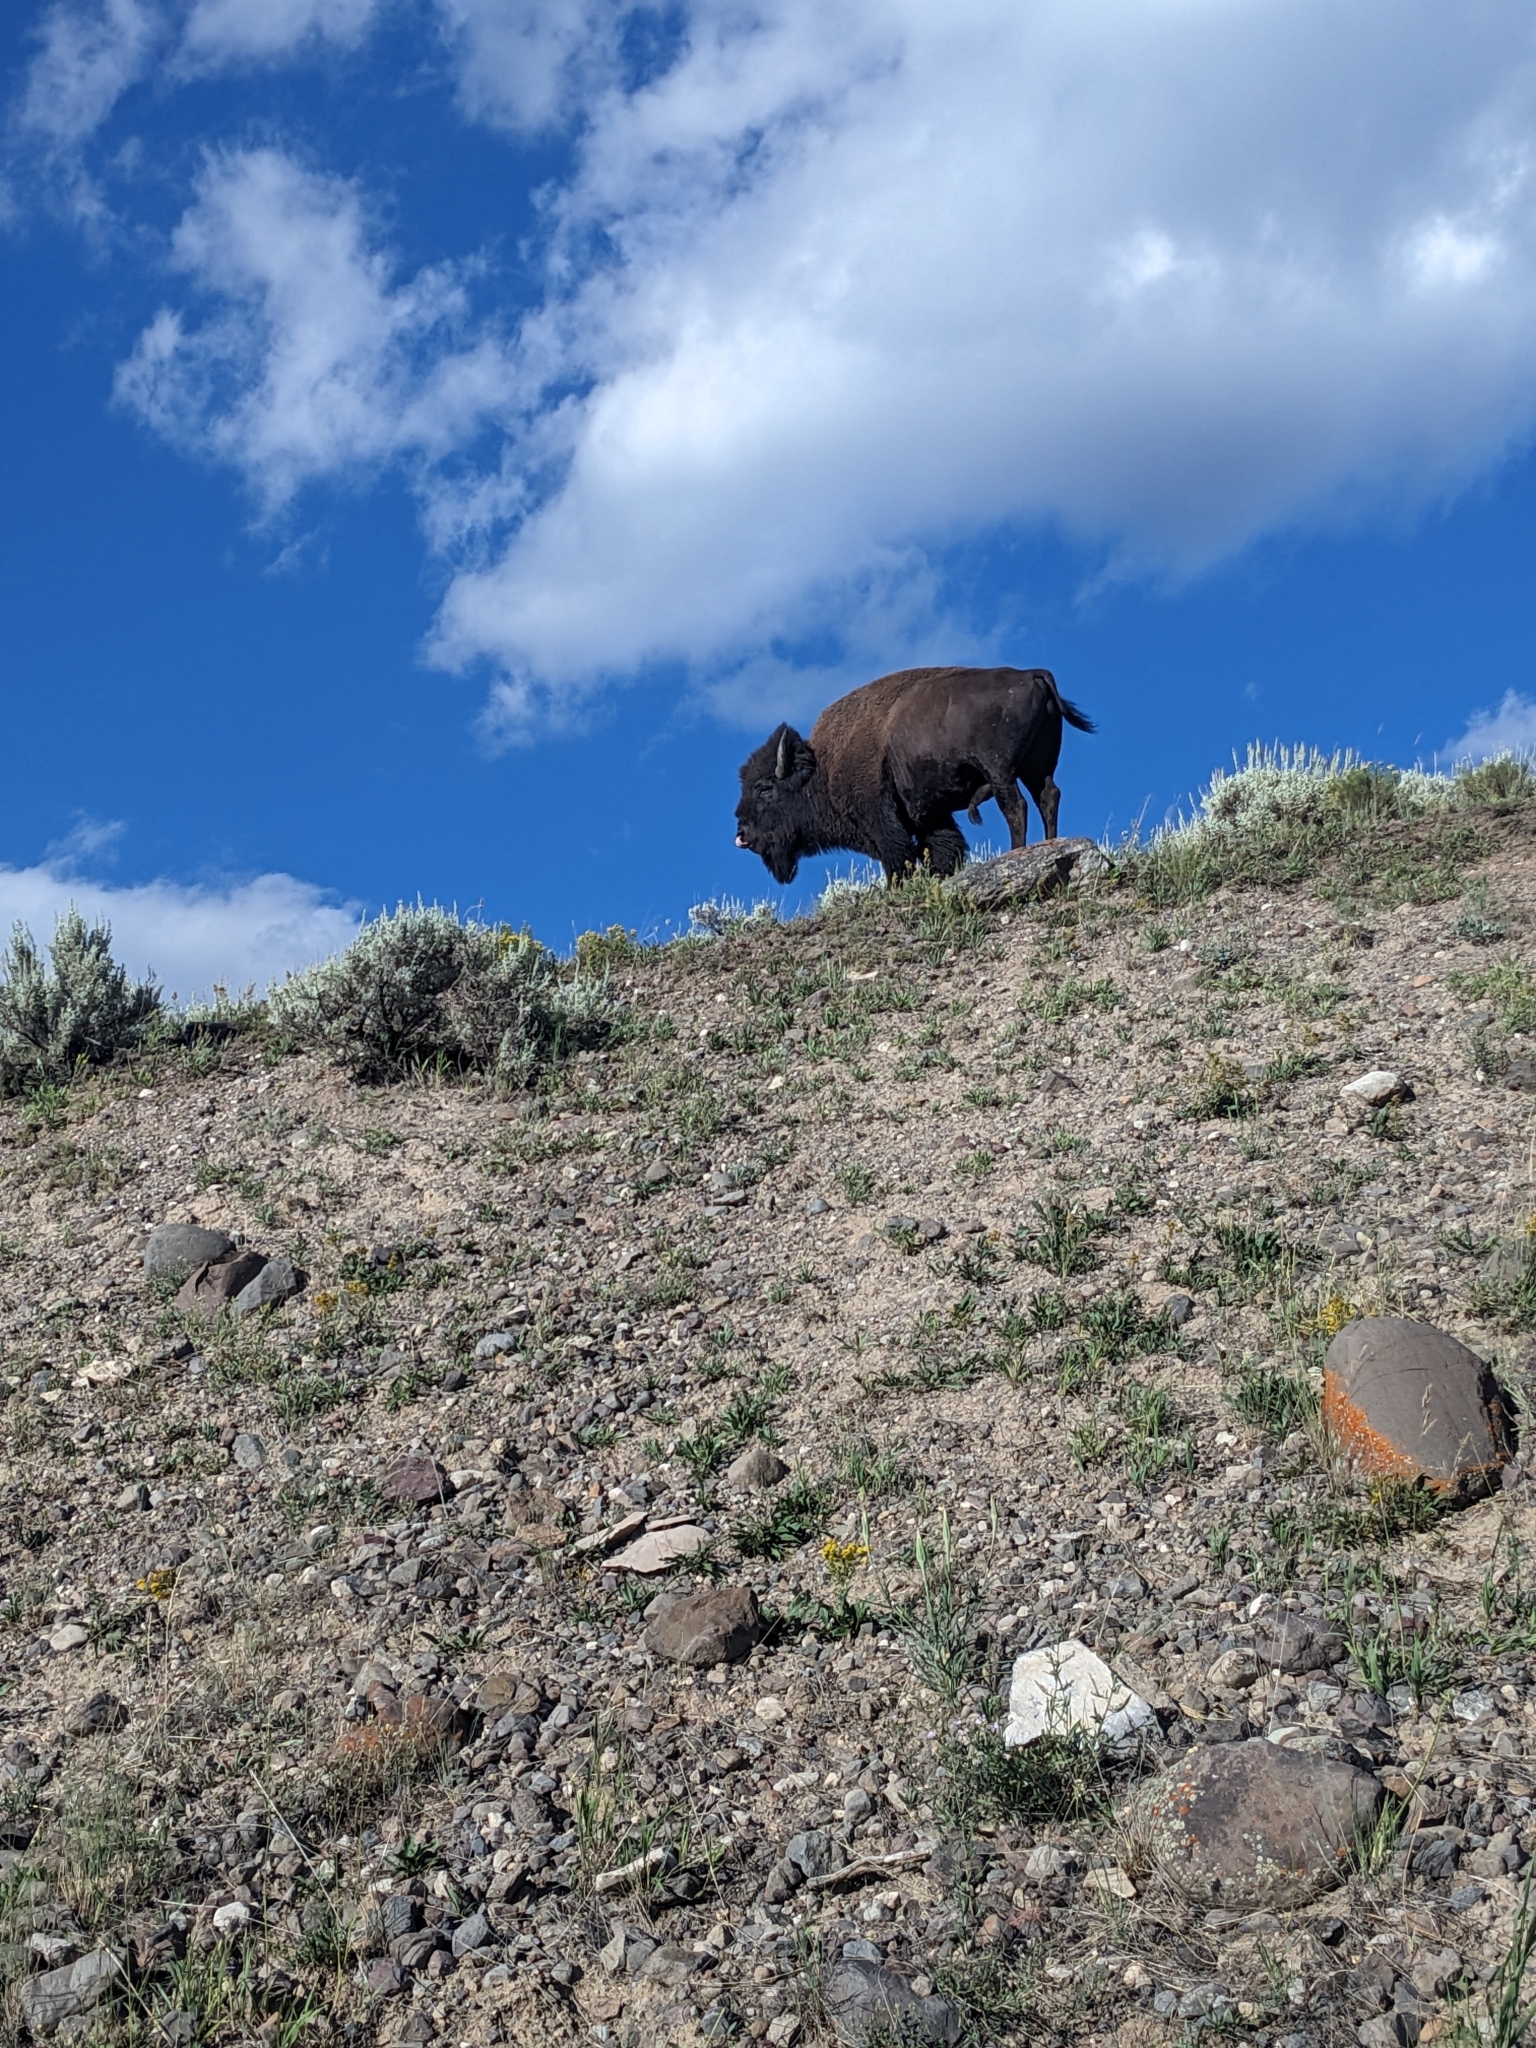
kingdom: Animalia
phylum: Chordata
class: Mammalia
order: Artiodactyla
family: Bovidae
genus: Bison
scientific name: Bison bison
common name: American bison
